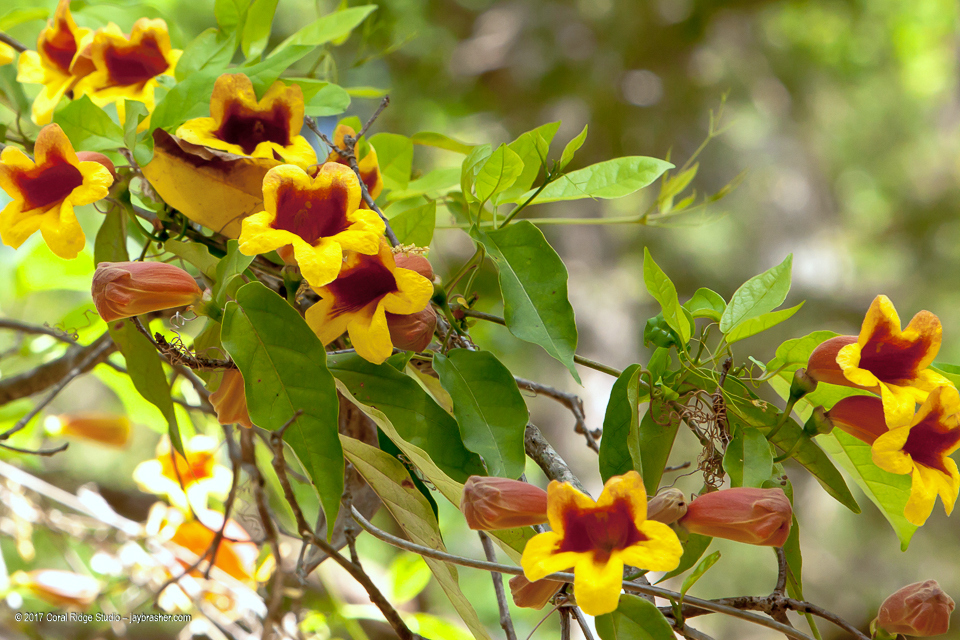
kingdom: Plantae
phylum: Tracheophyta
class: Magnoliopsida
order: Lamiales
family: Bignoniaceae
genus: Bignonia
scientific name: Bignonia capreolata
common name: Crossvine
